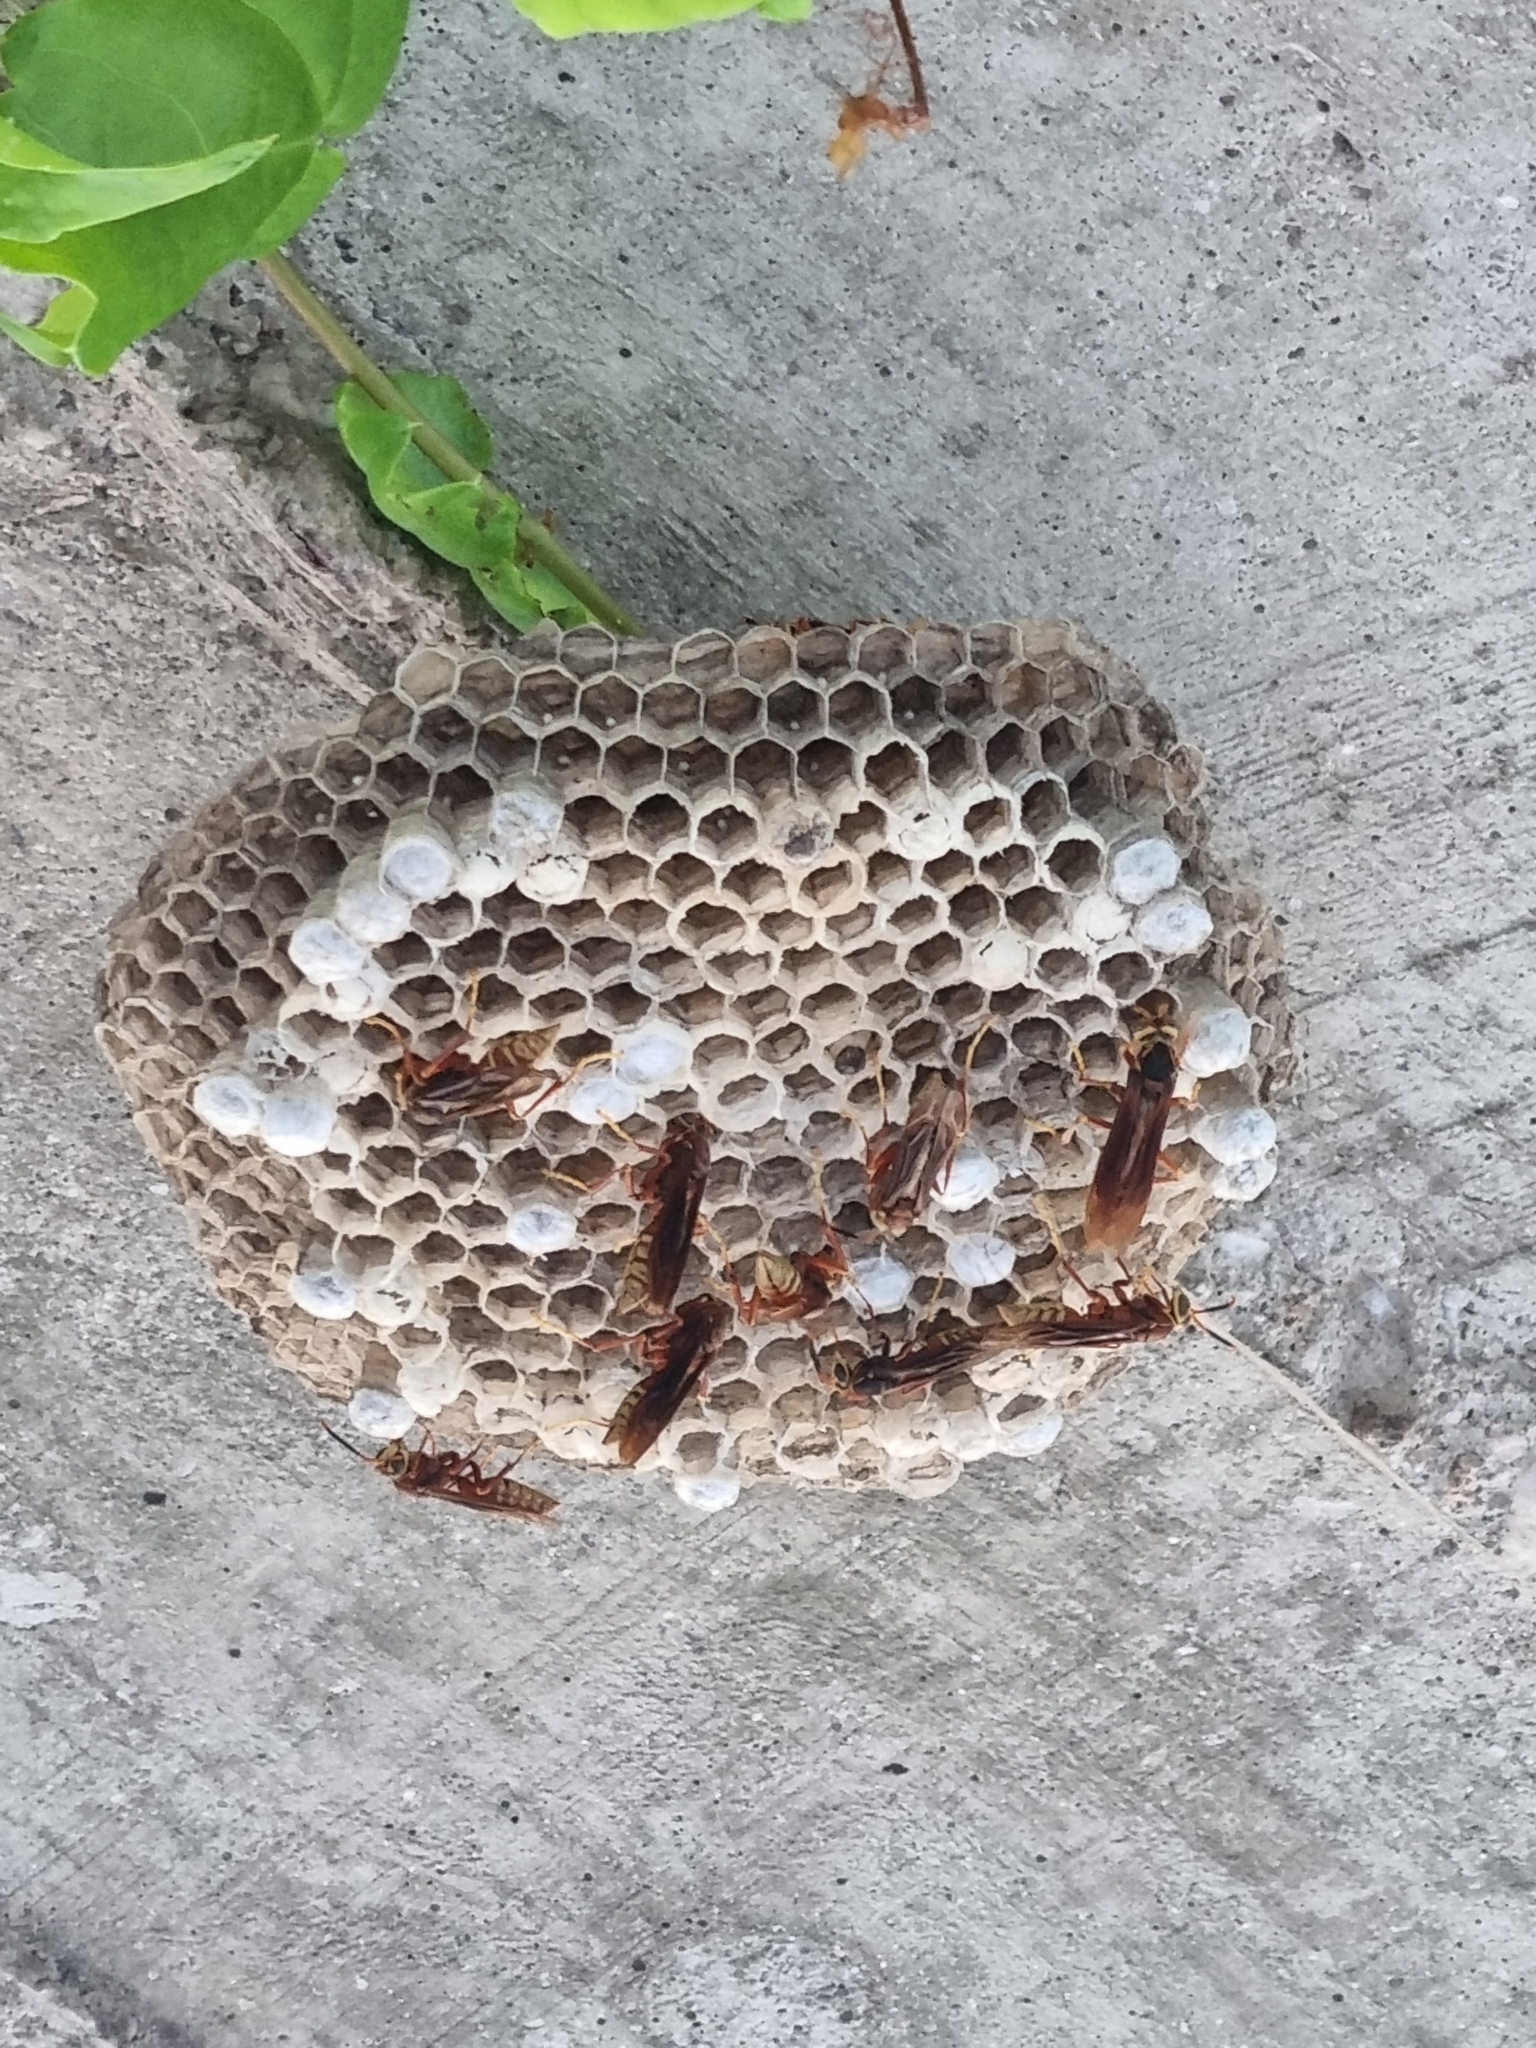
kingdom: Animalia
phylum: Arthropoda
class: Insecta
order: Hymenoptera
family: Eumenidae
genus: Polistes
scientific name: Polistes cavapyta
